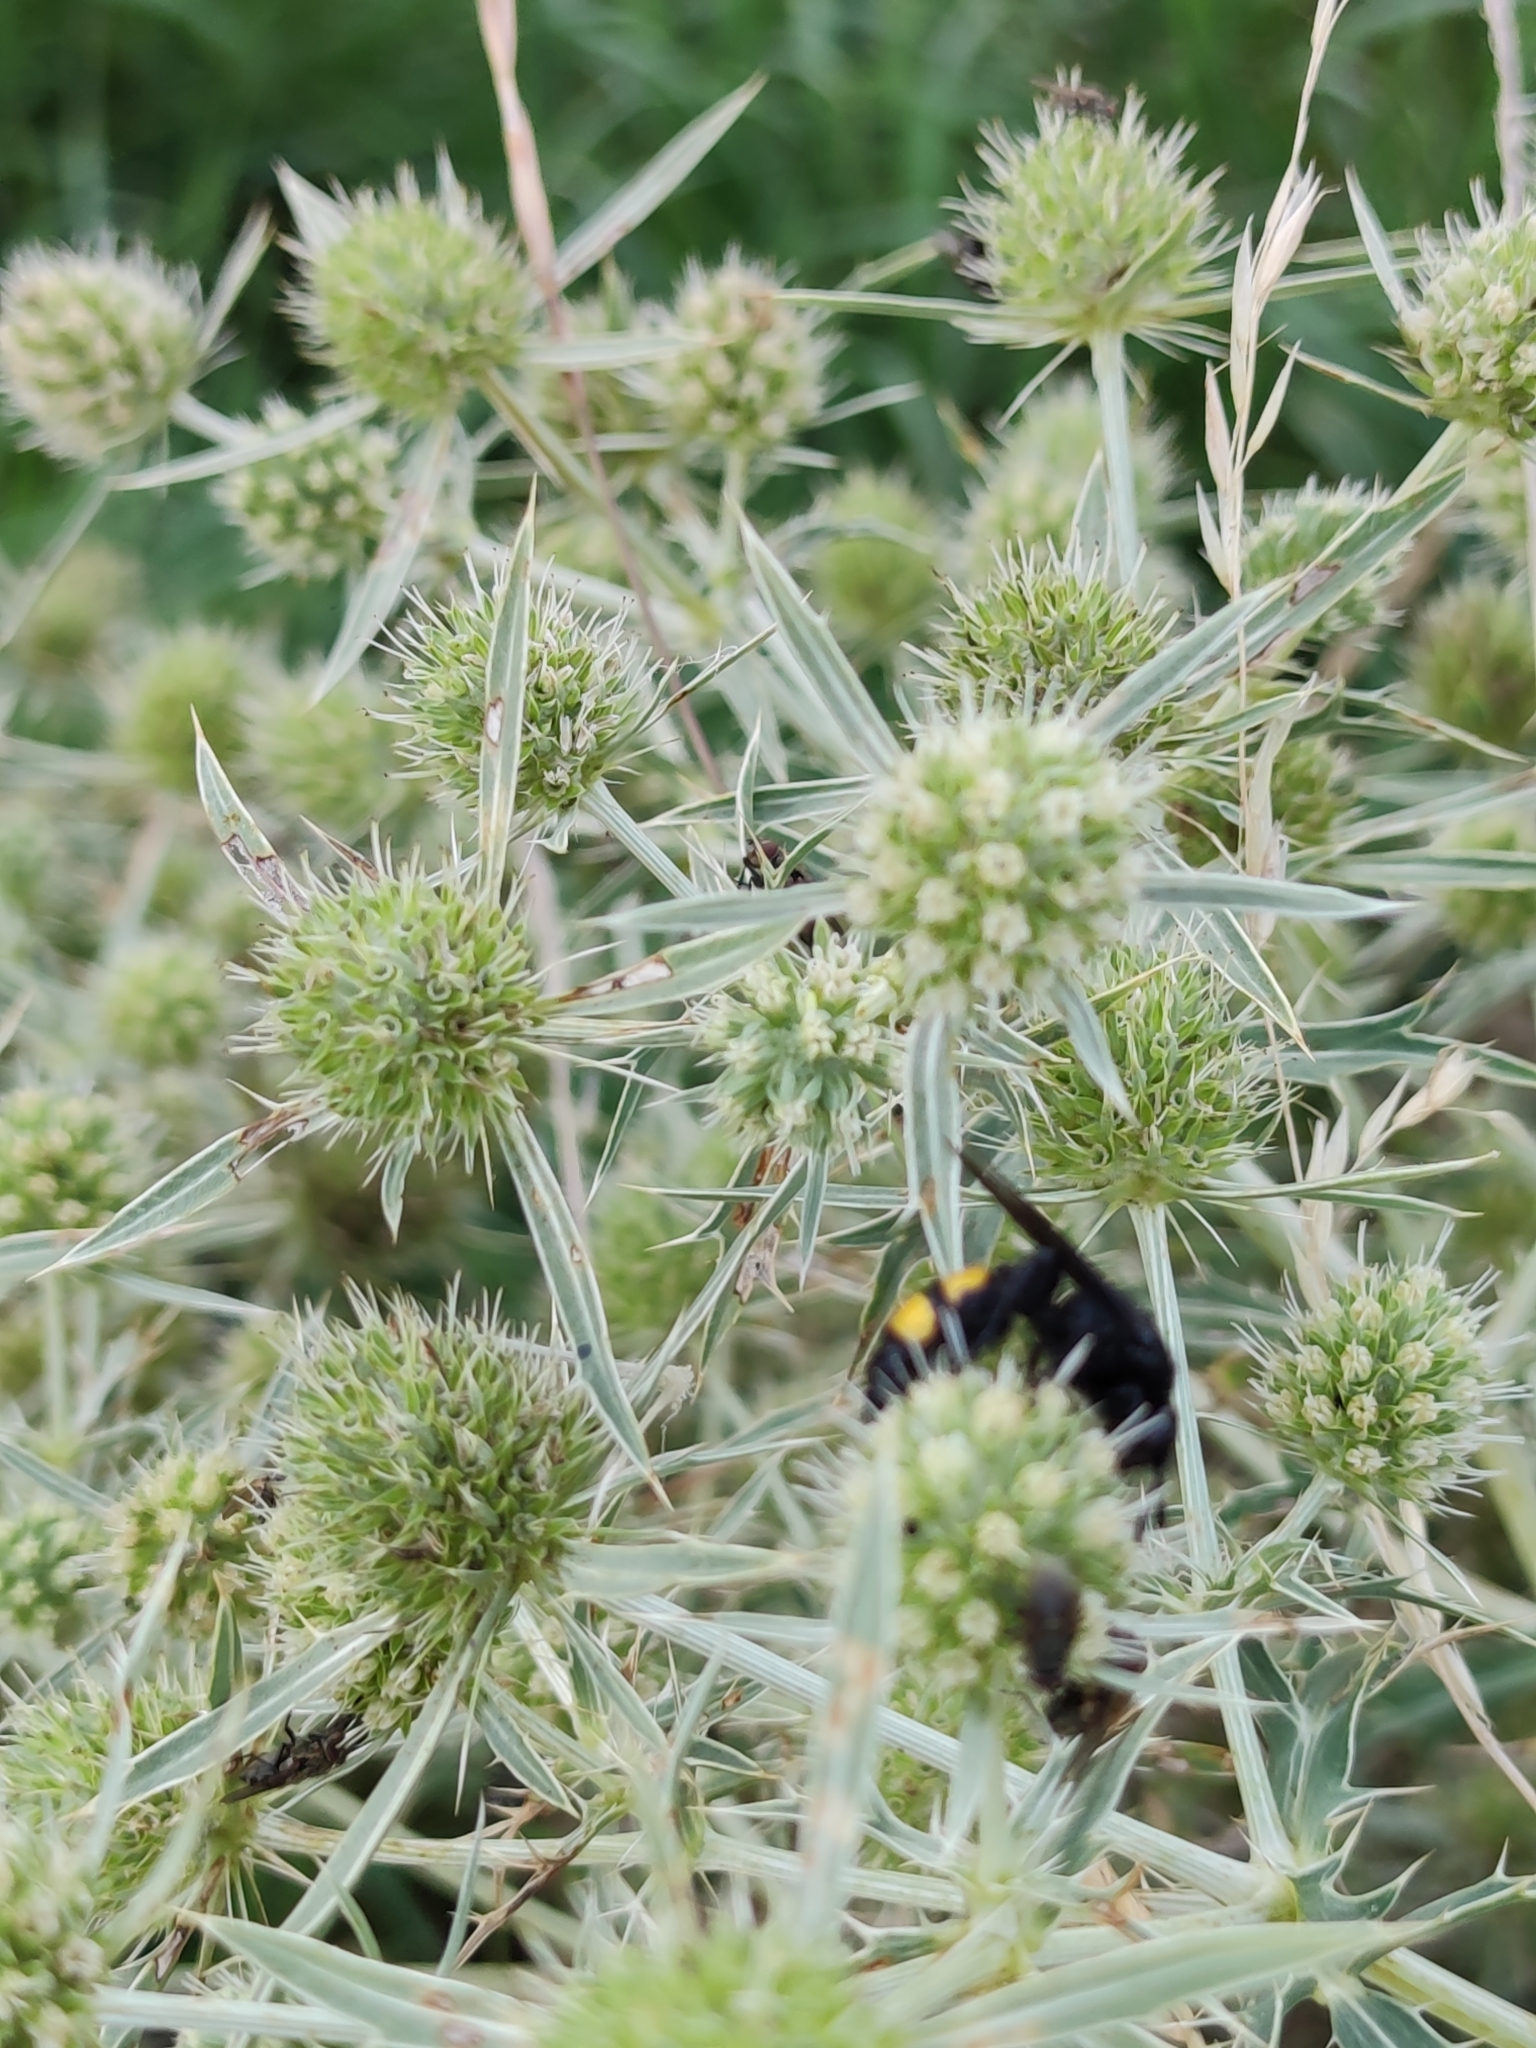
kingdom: Animalia
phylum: Arthropoda
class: Insecta
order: Hymenoptera
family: Scoliidae
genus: Scolia
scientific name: Scolia hirta
